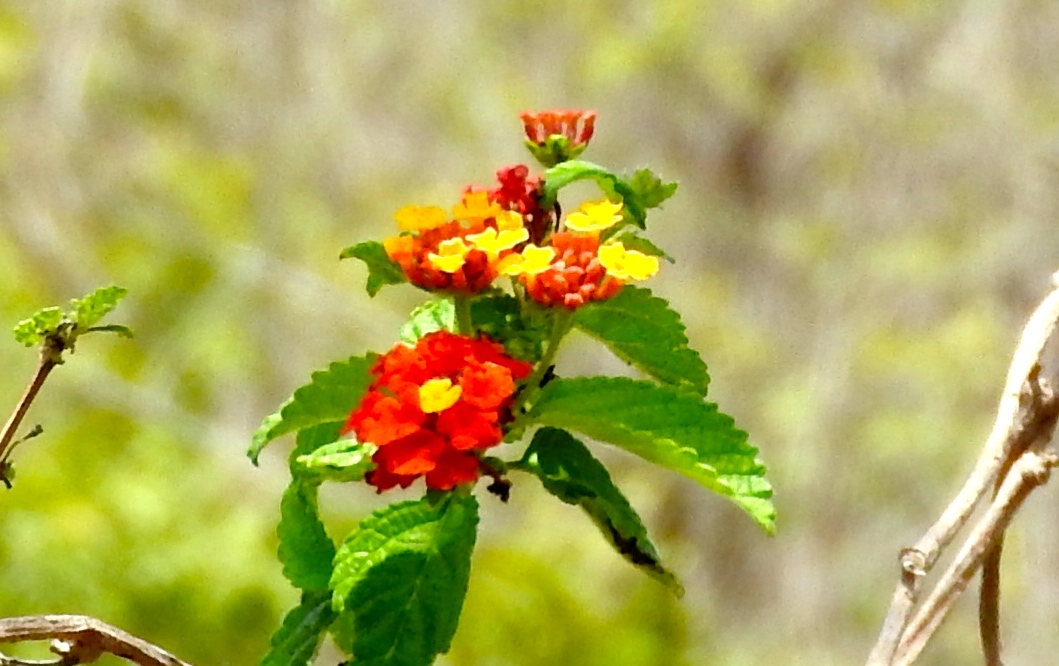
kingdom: Plantae
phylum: Tracheophyta
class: Magnoliopsida
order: Lamiales
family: Verbenaceae
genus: Lantana
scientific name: Lantana camara
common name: Lantana
